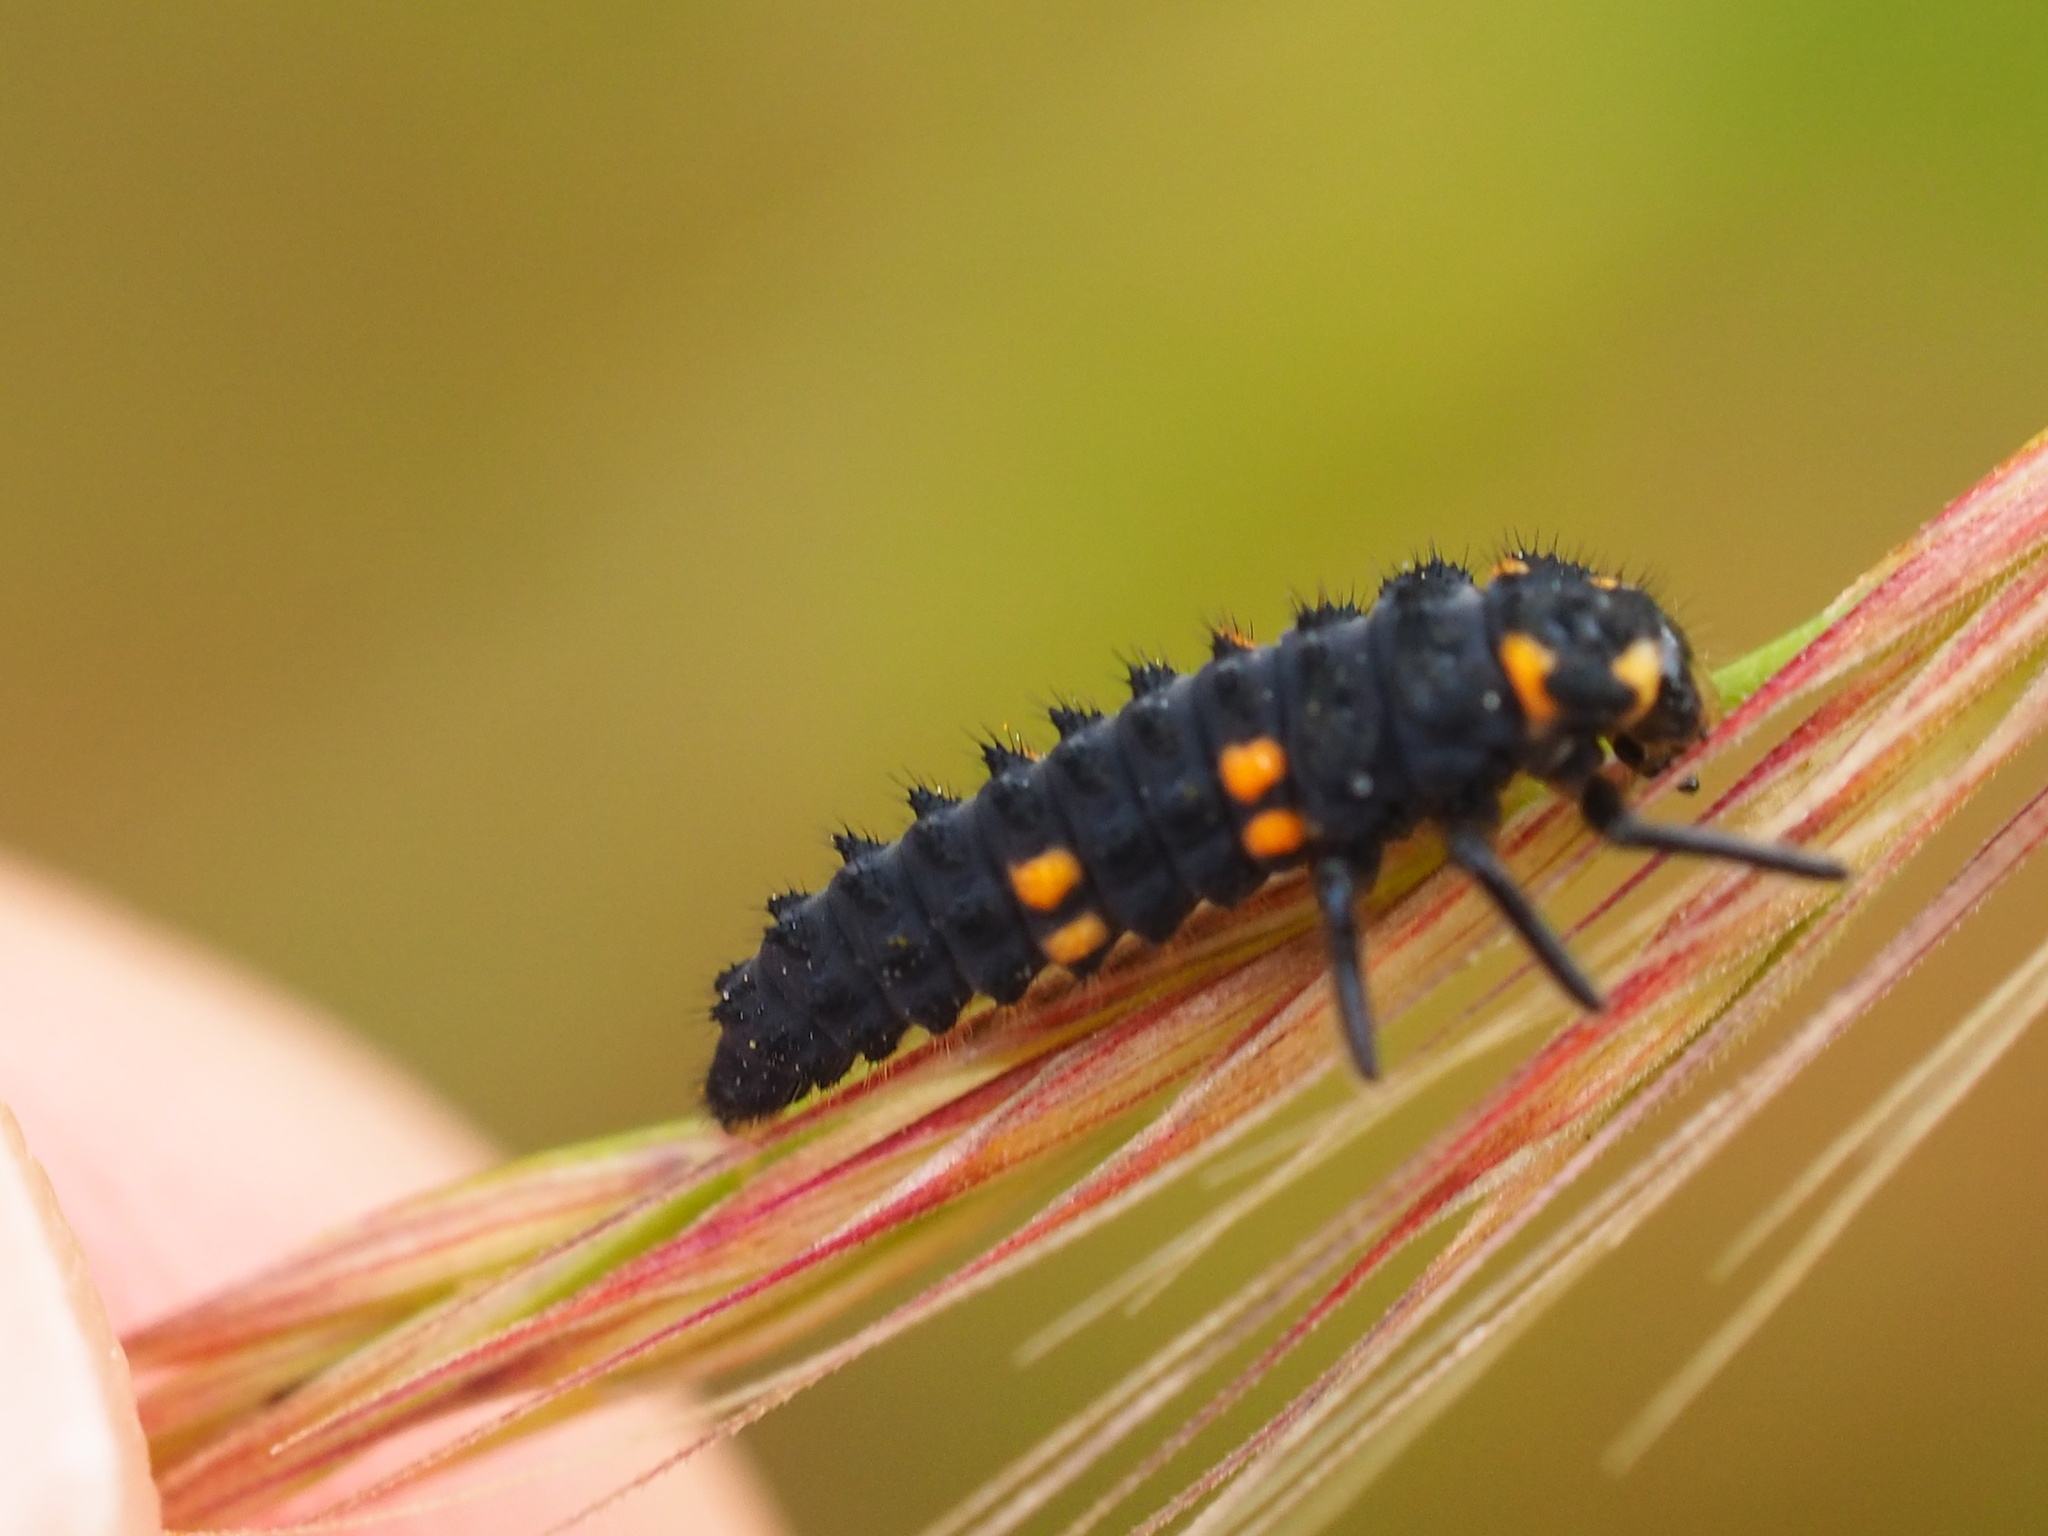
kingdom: Animalia
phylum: Arthropoda
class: Insecta
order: Coleoptera
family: Coccinellidae
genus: Coccinella
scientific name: Coccinella septempunctata
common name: Sevenspotted lady beetle
